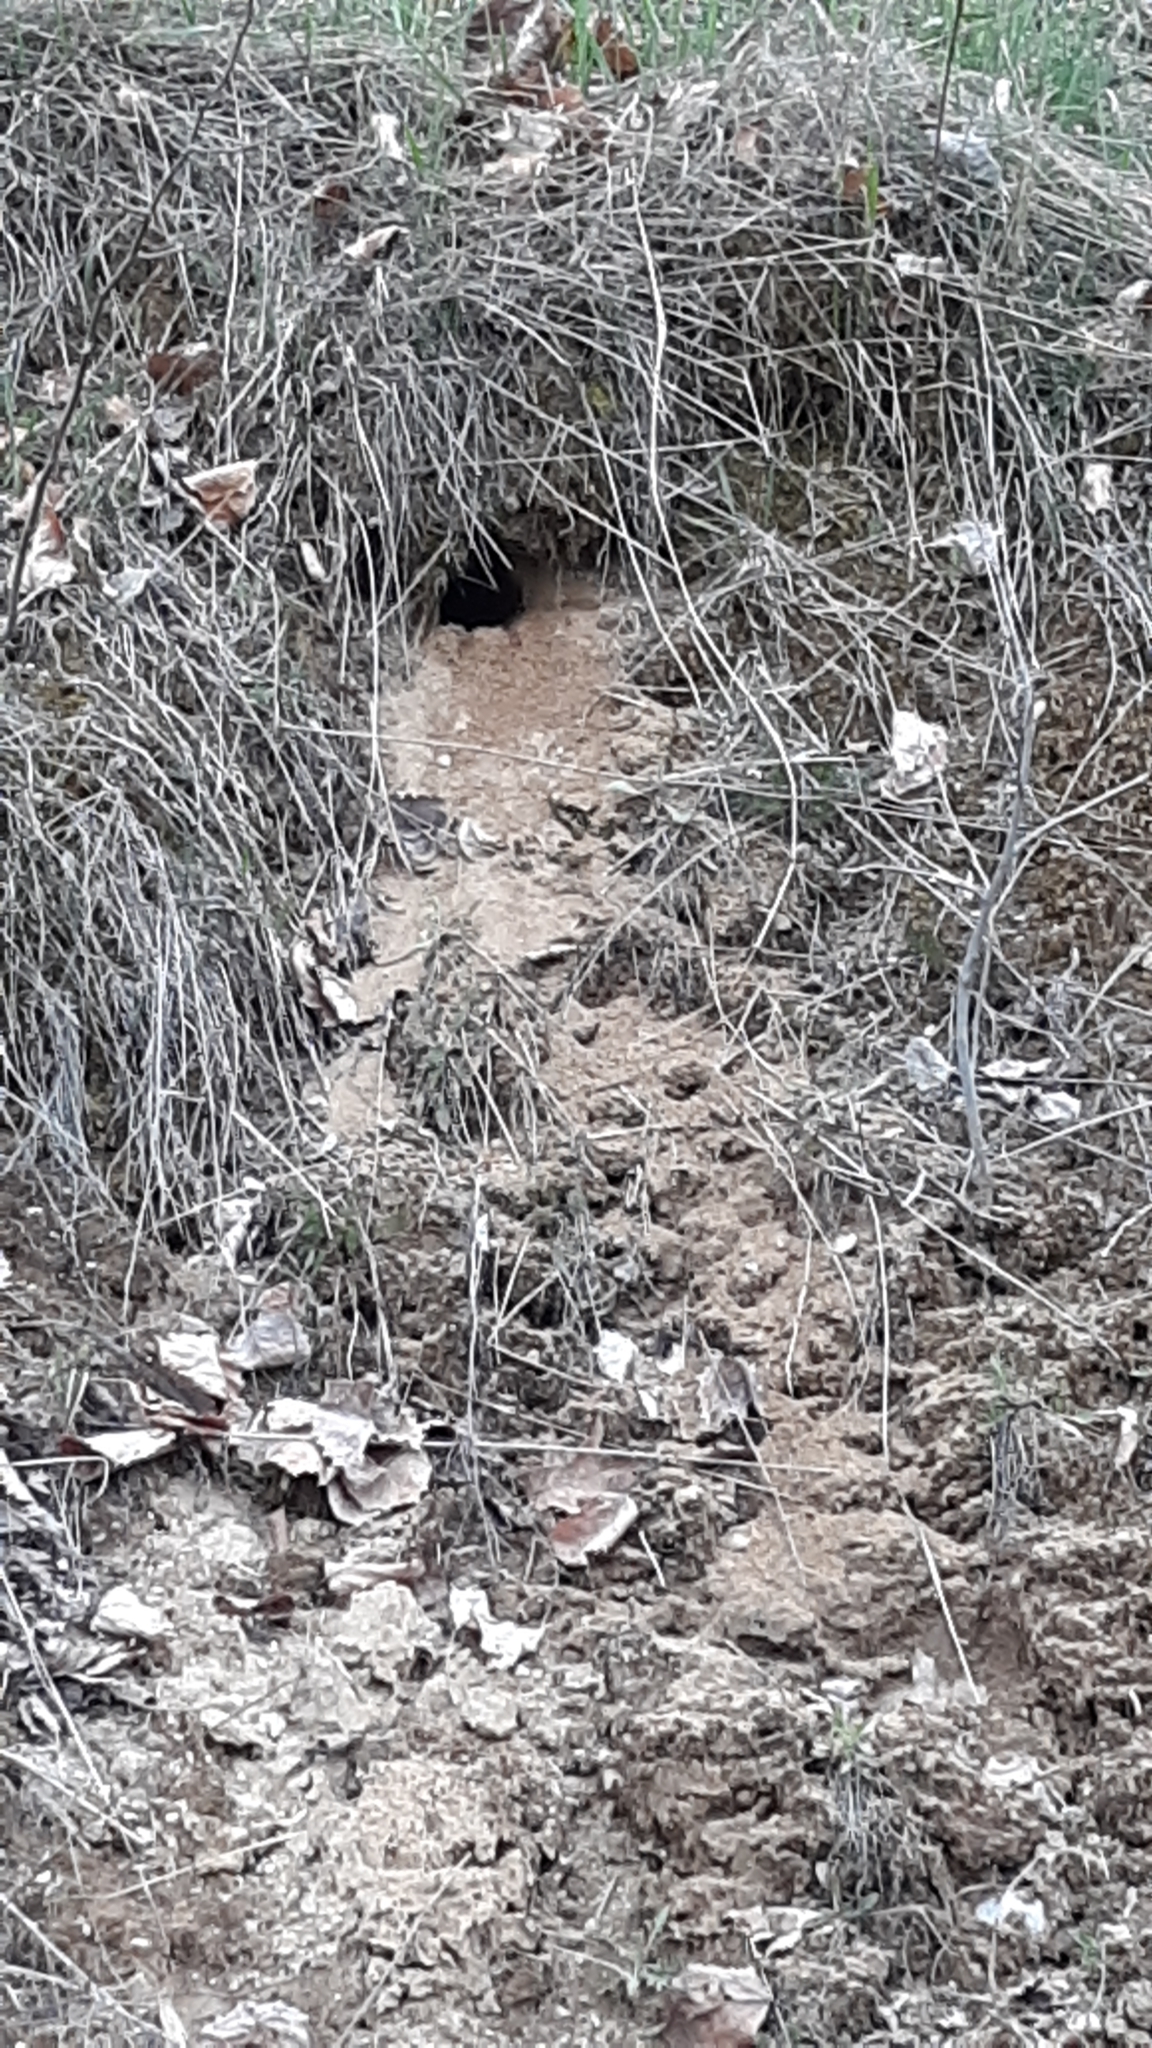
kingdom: Animalia
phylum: Chordata
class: Aves
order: Coraciiformes
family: Alcedinidae
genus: Megaceryle
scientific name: Megaceryle alcyon
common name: Belted kingfisher
